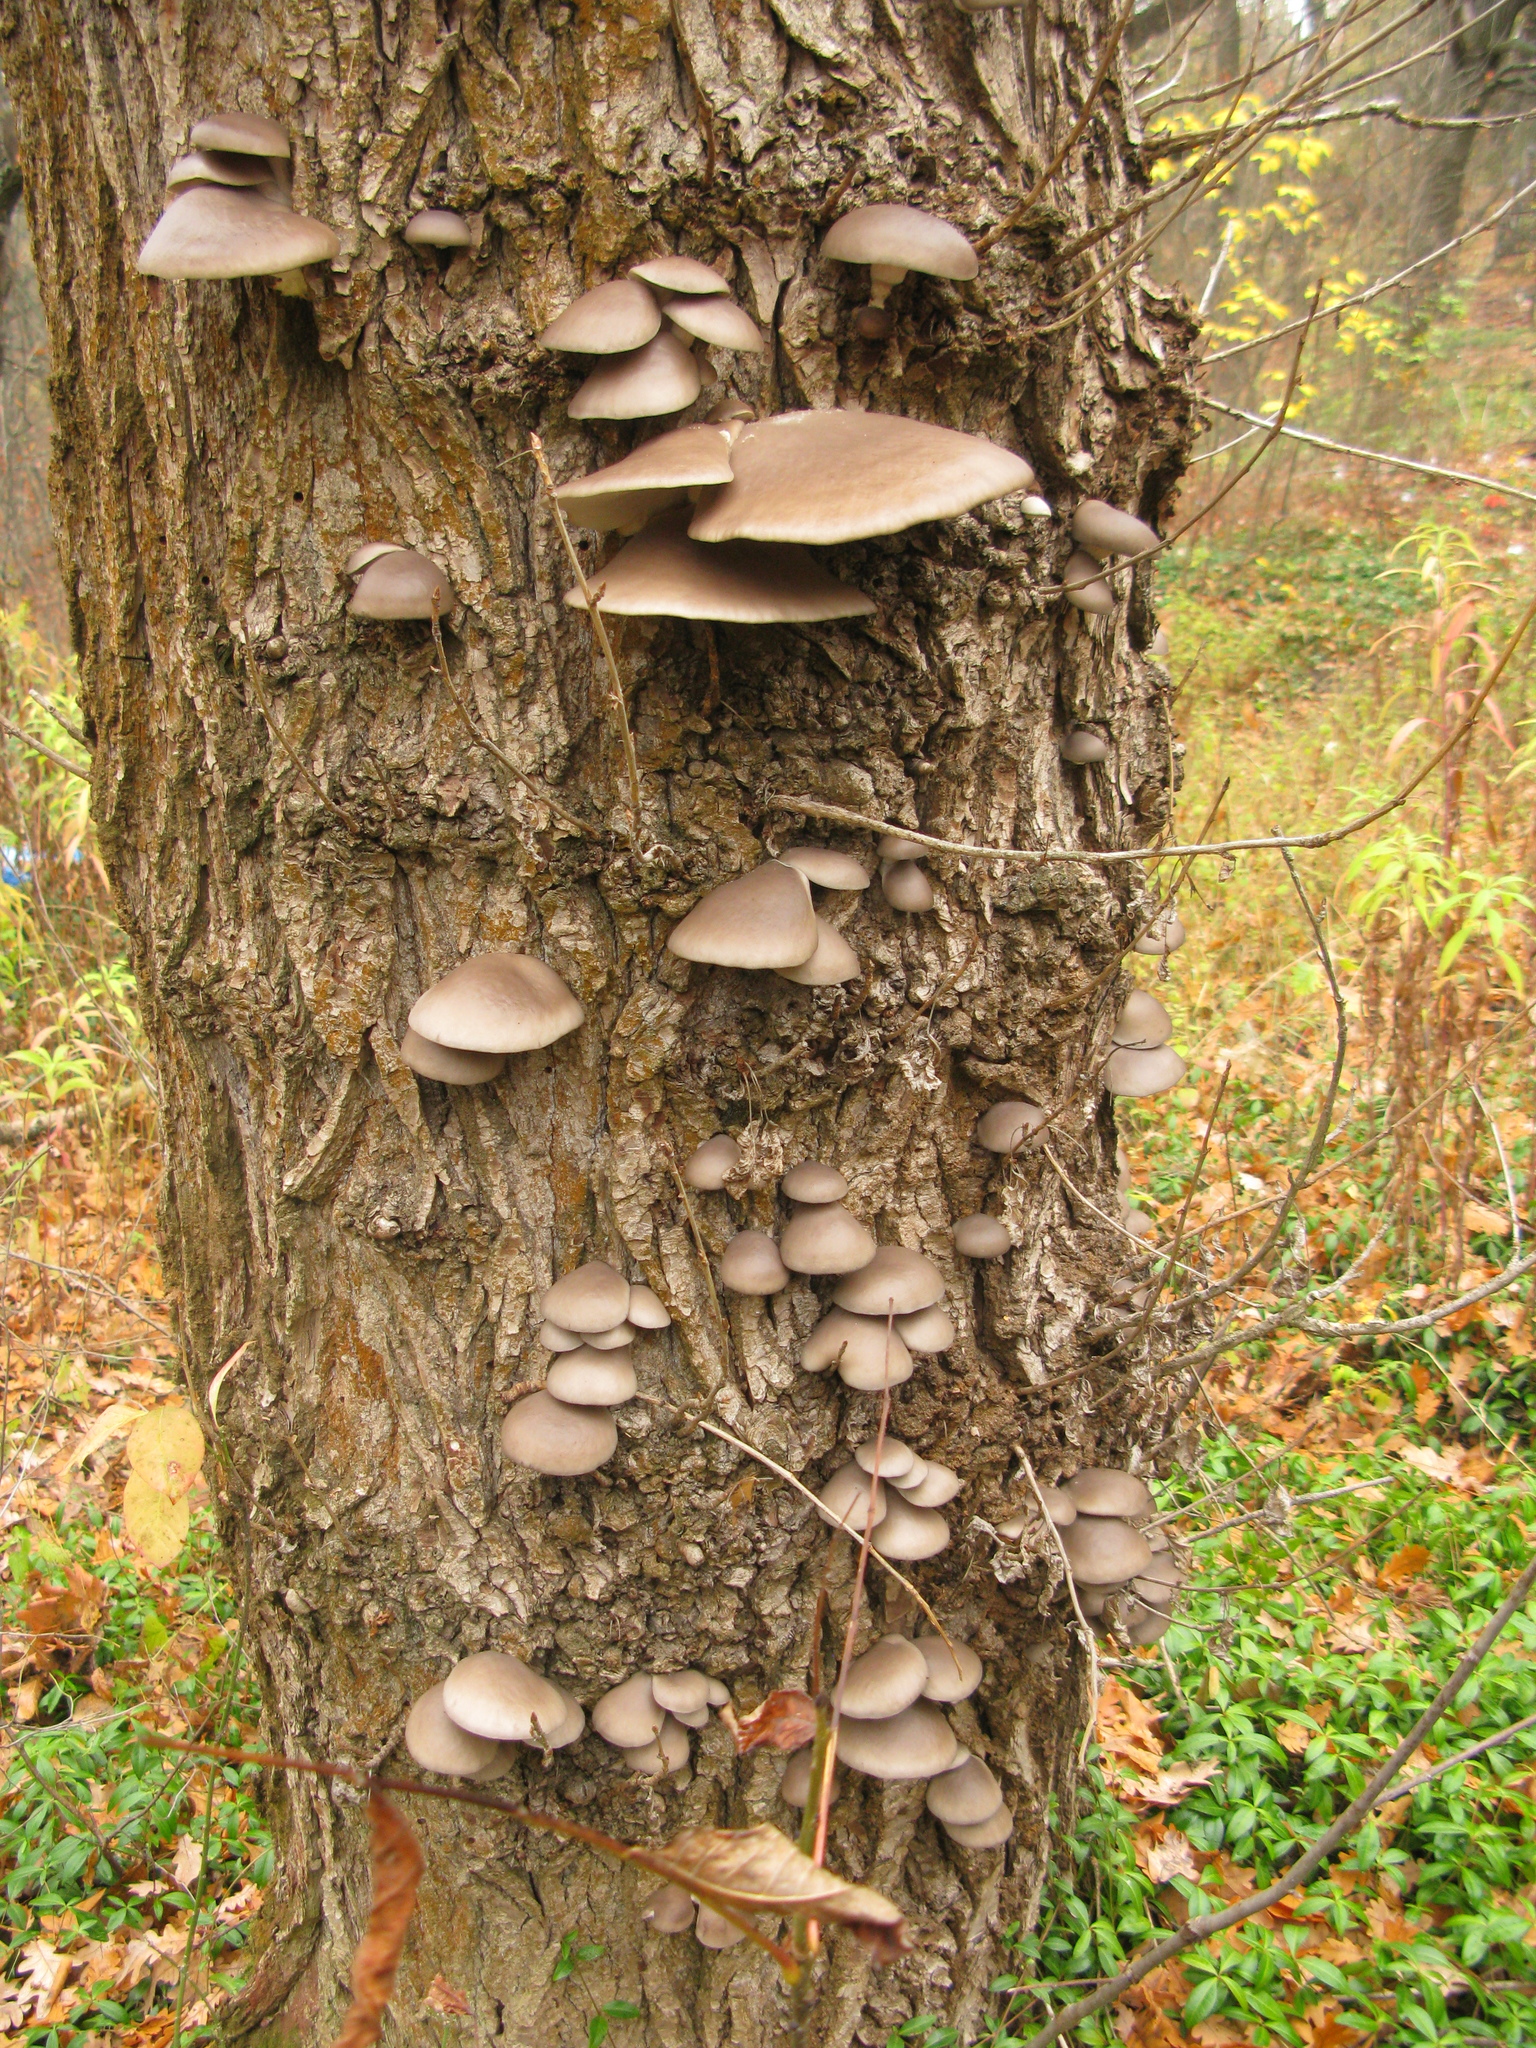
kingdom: Fungi
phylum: Basidiomycota
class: Agaricomycetes
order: Agaricales
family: Pleurotaceae
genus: Pleurotus
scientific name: Pleurotus ostreatus
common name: Oyster mushroom
